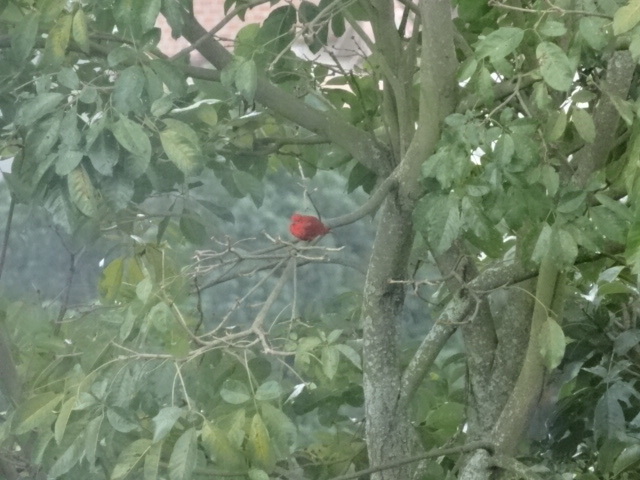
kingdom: Animalia
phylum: Chordata
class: Aves
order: Passeriformes
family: Cardinalidae
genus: Piranga
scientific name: Piranga rubra
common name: Summer tanager
